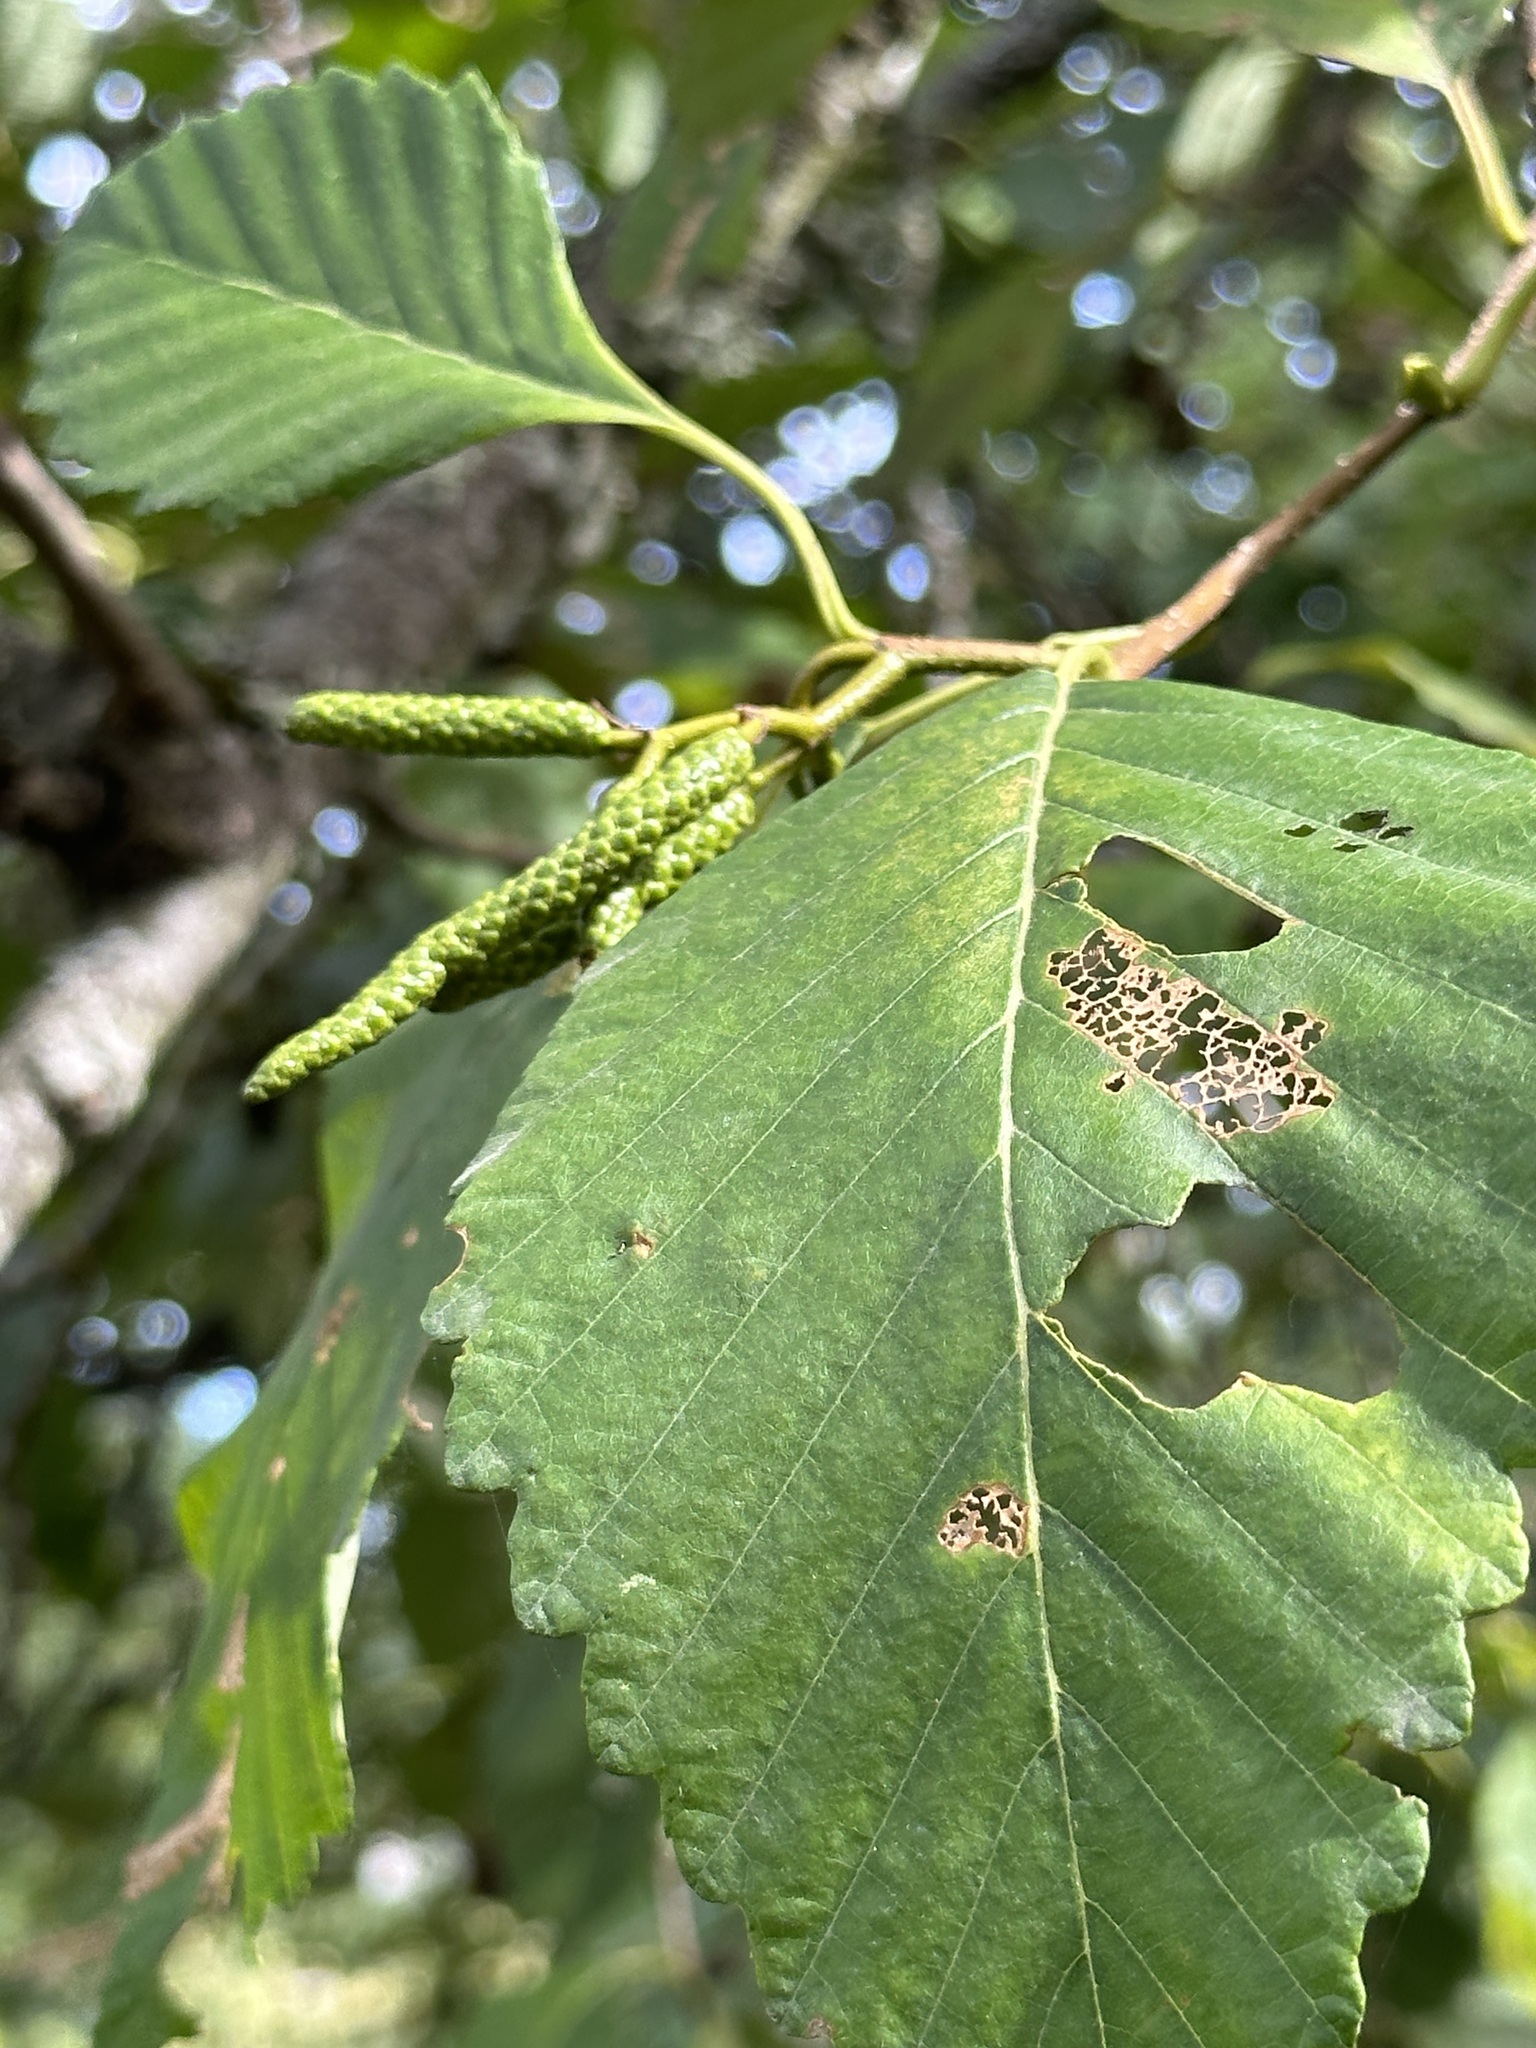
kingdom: Plantae
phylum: Tracheophyta
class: Magnoliopsida
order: Fagales
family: Betulaceae
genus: Alnus
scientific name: Alnus rubra
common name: Red alder
